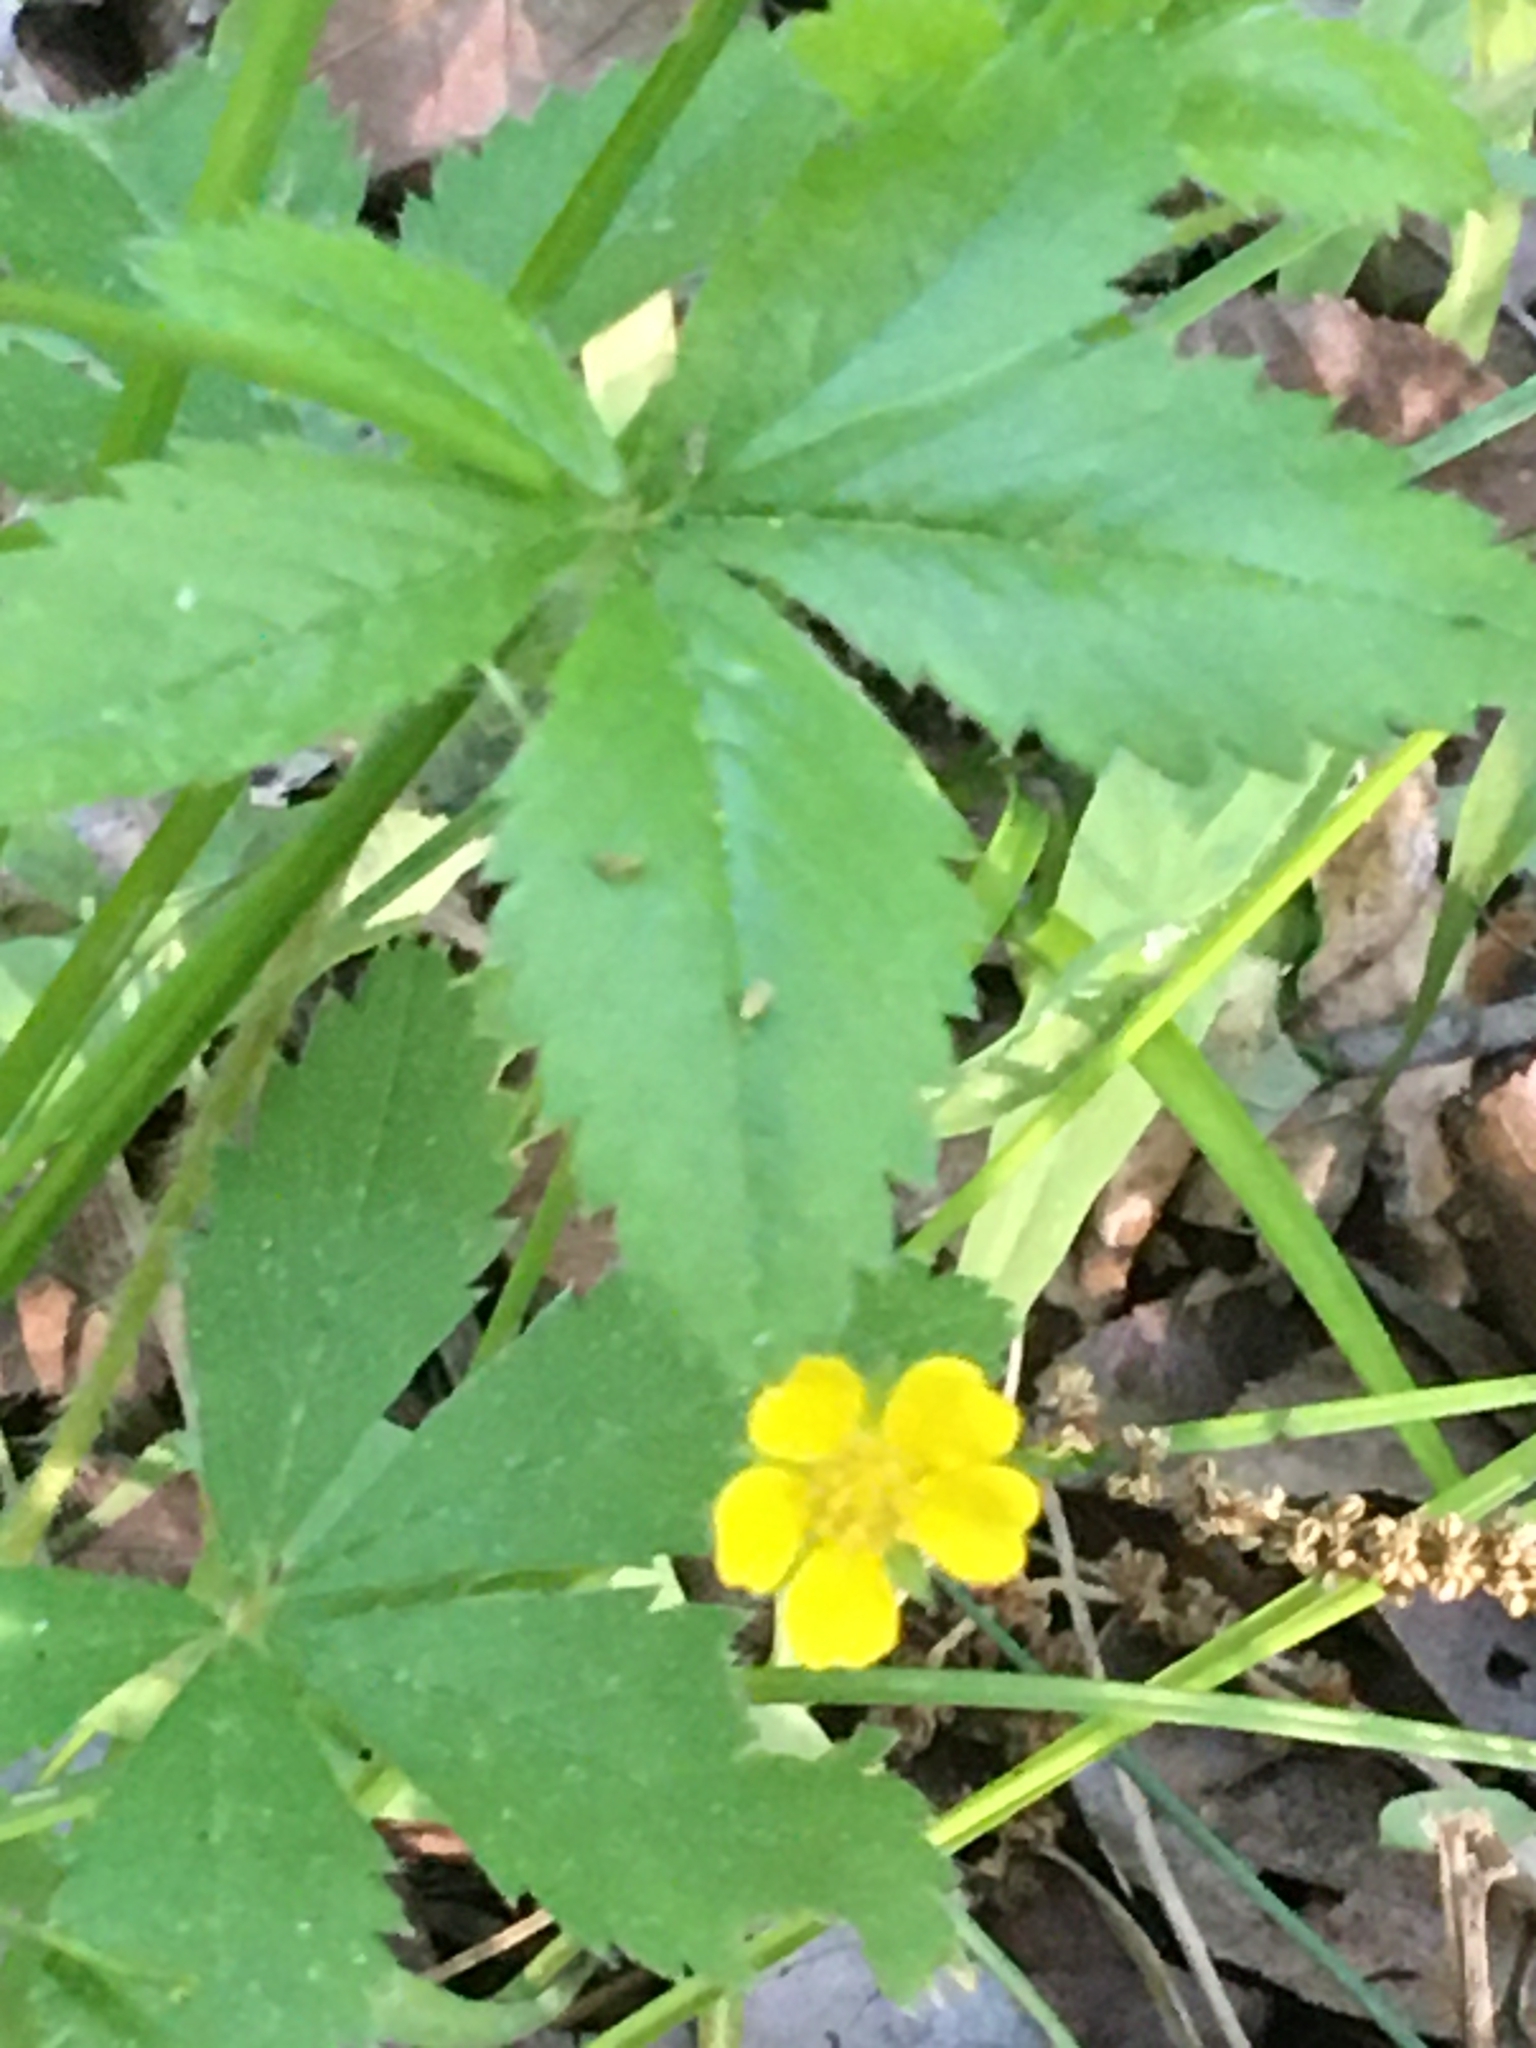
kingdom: Plantae
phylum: Tracheophyta
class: Magnoliopsida
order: Rosales
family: Rosaceae
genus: Potentilla
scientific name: Potentilla simplex
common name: Old field cinquefoil
